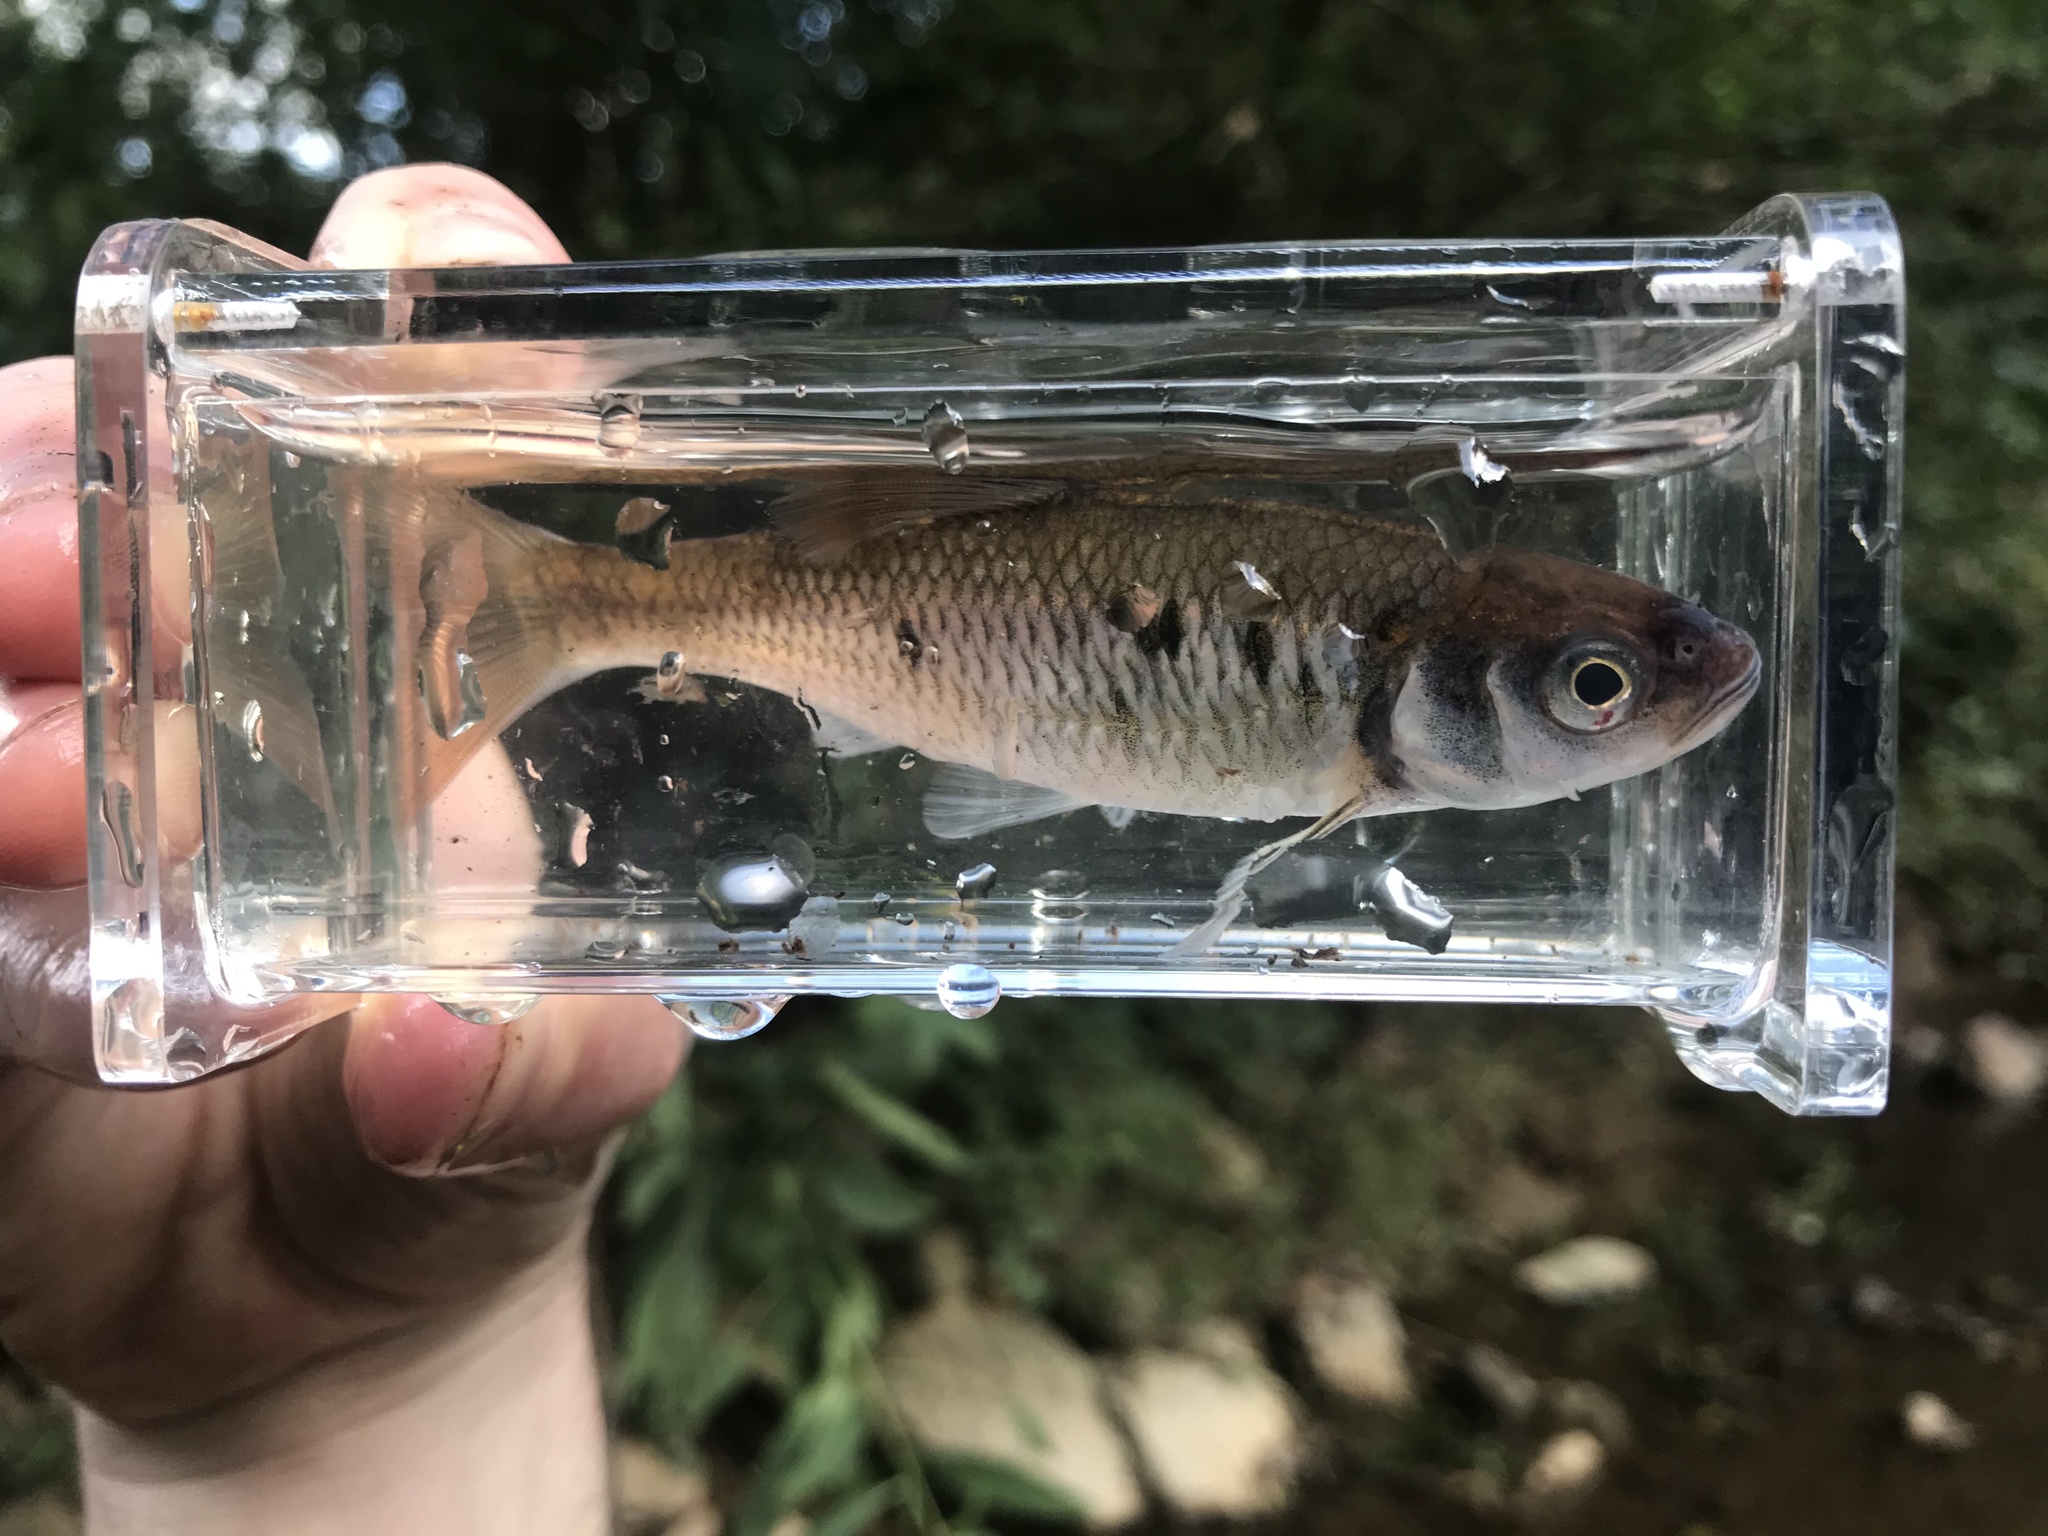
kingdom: Animalia
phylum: Chordata
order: Cypriniformes
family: Cyprinidae
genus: Luxilus
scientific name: Luxilus albeolus
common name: White shiner
